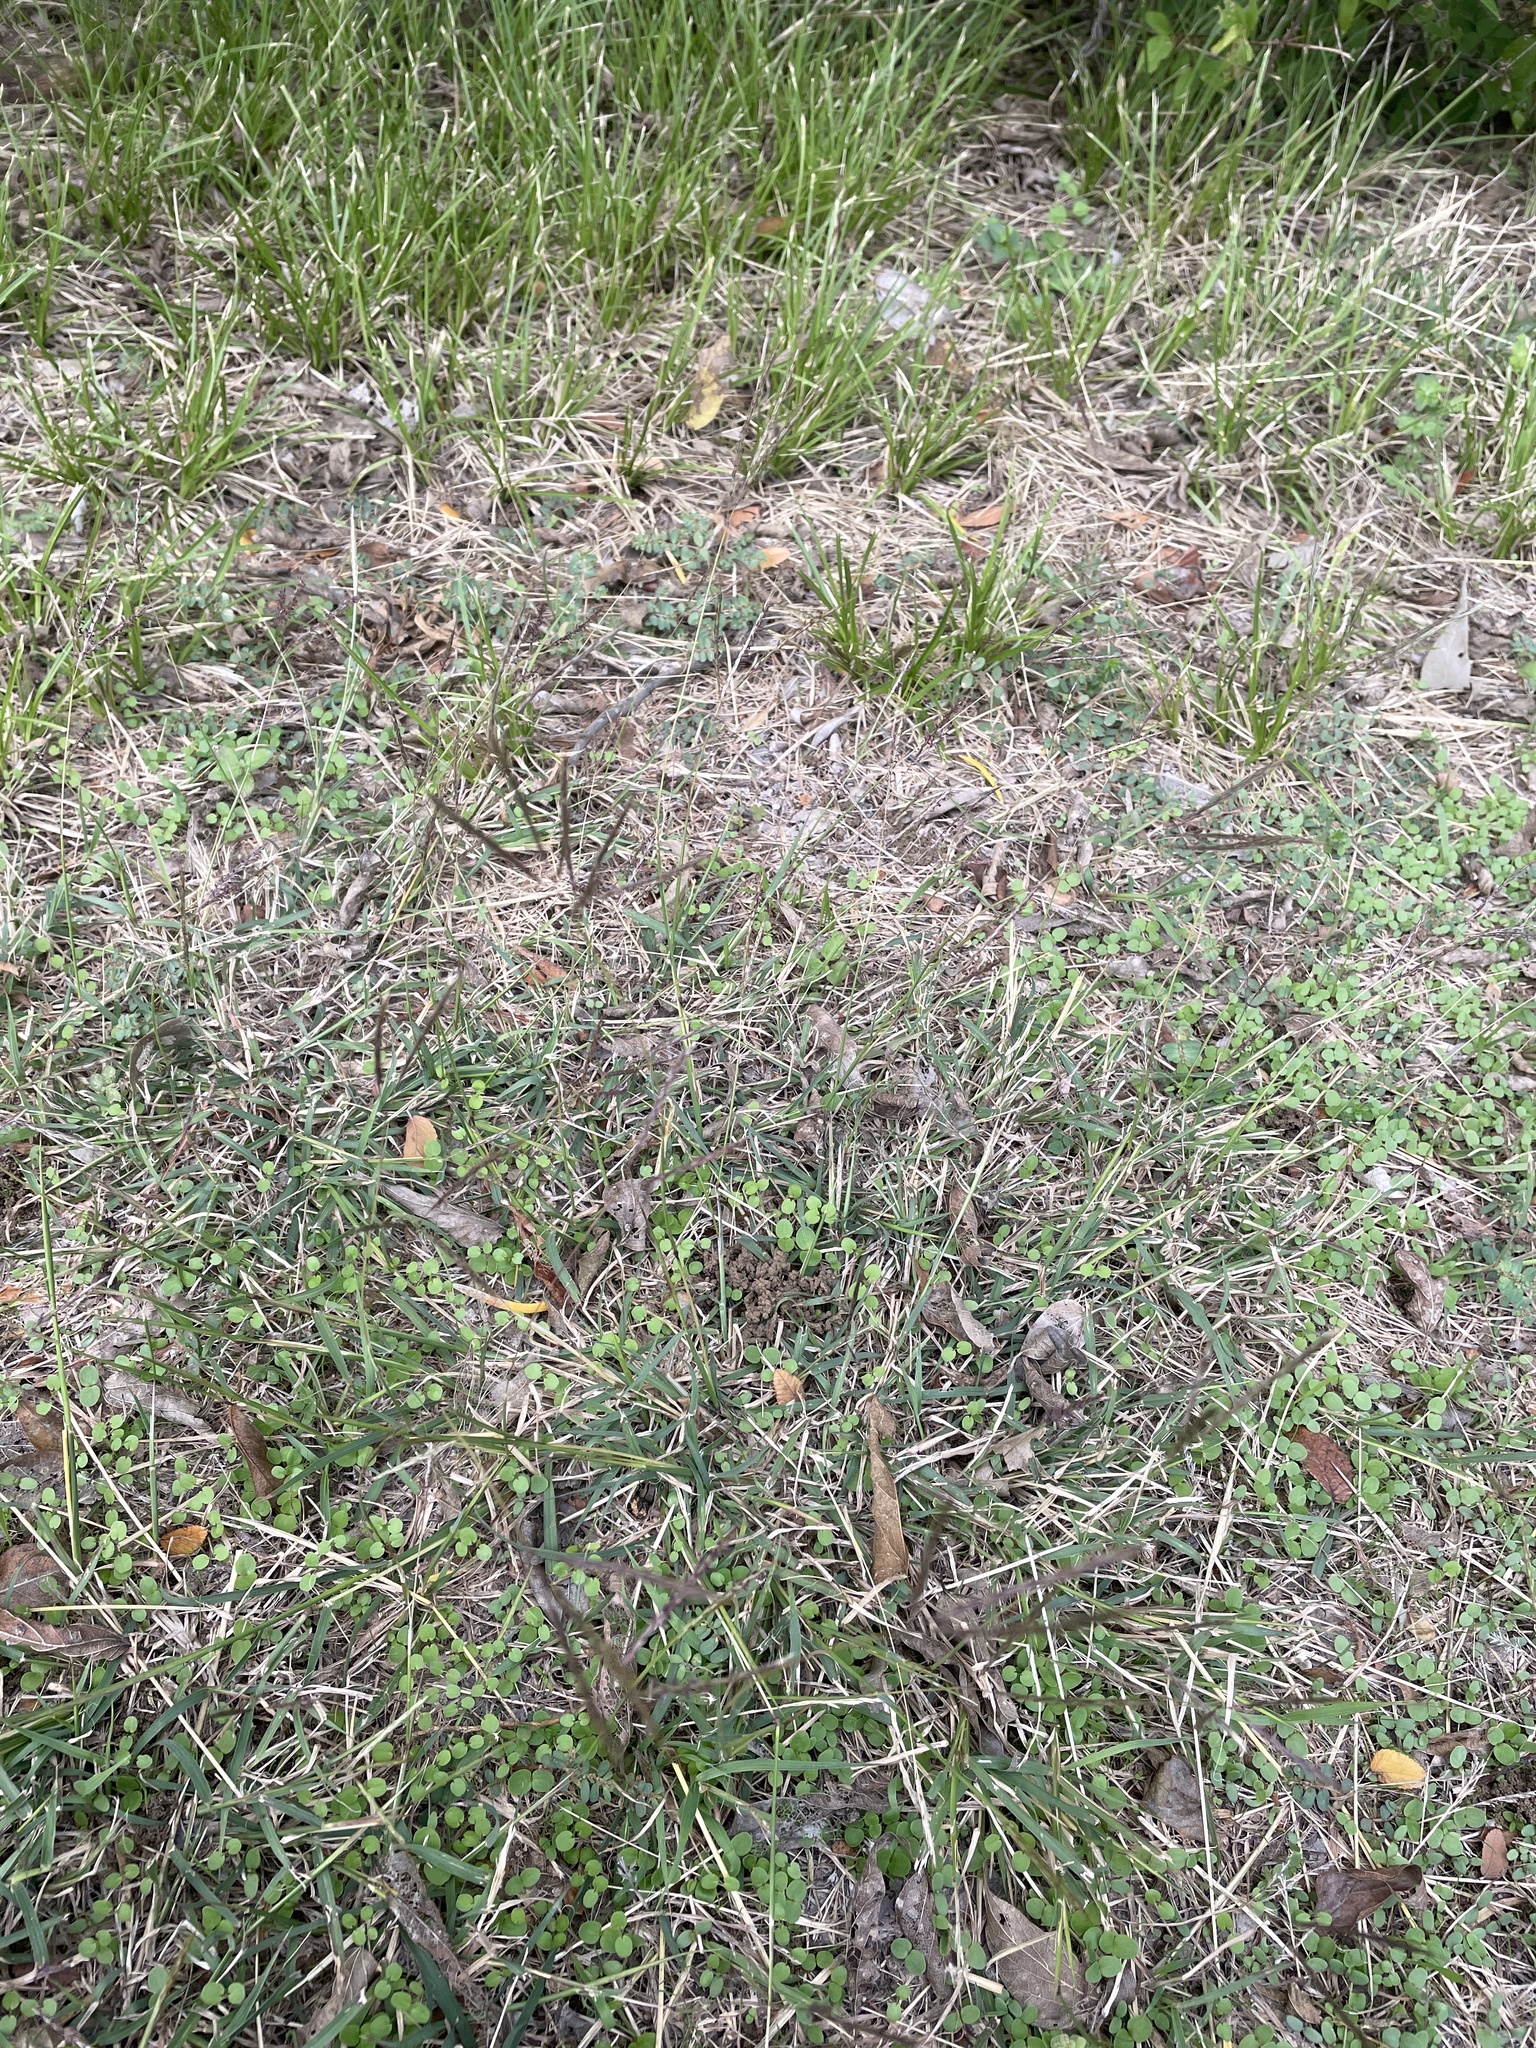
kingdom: Plantae
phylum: Tracheophyta
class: Liliopsida
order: Poales
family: Poaceae
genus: Bothriochloa
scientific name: Bothriochloa ischaemum
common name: Yellow bluestem
